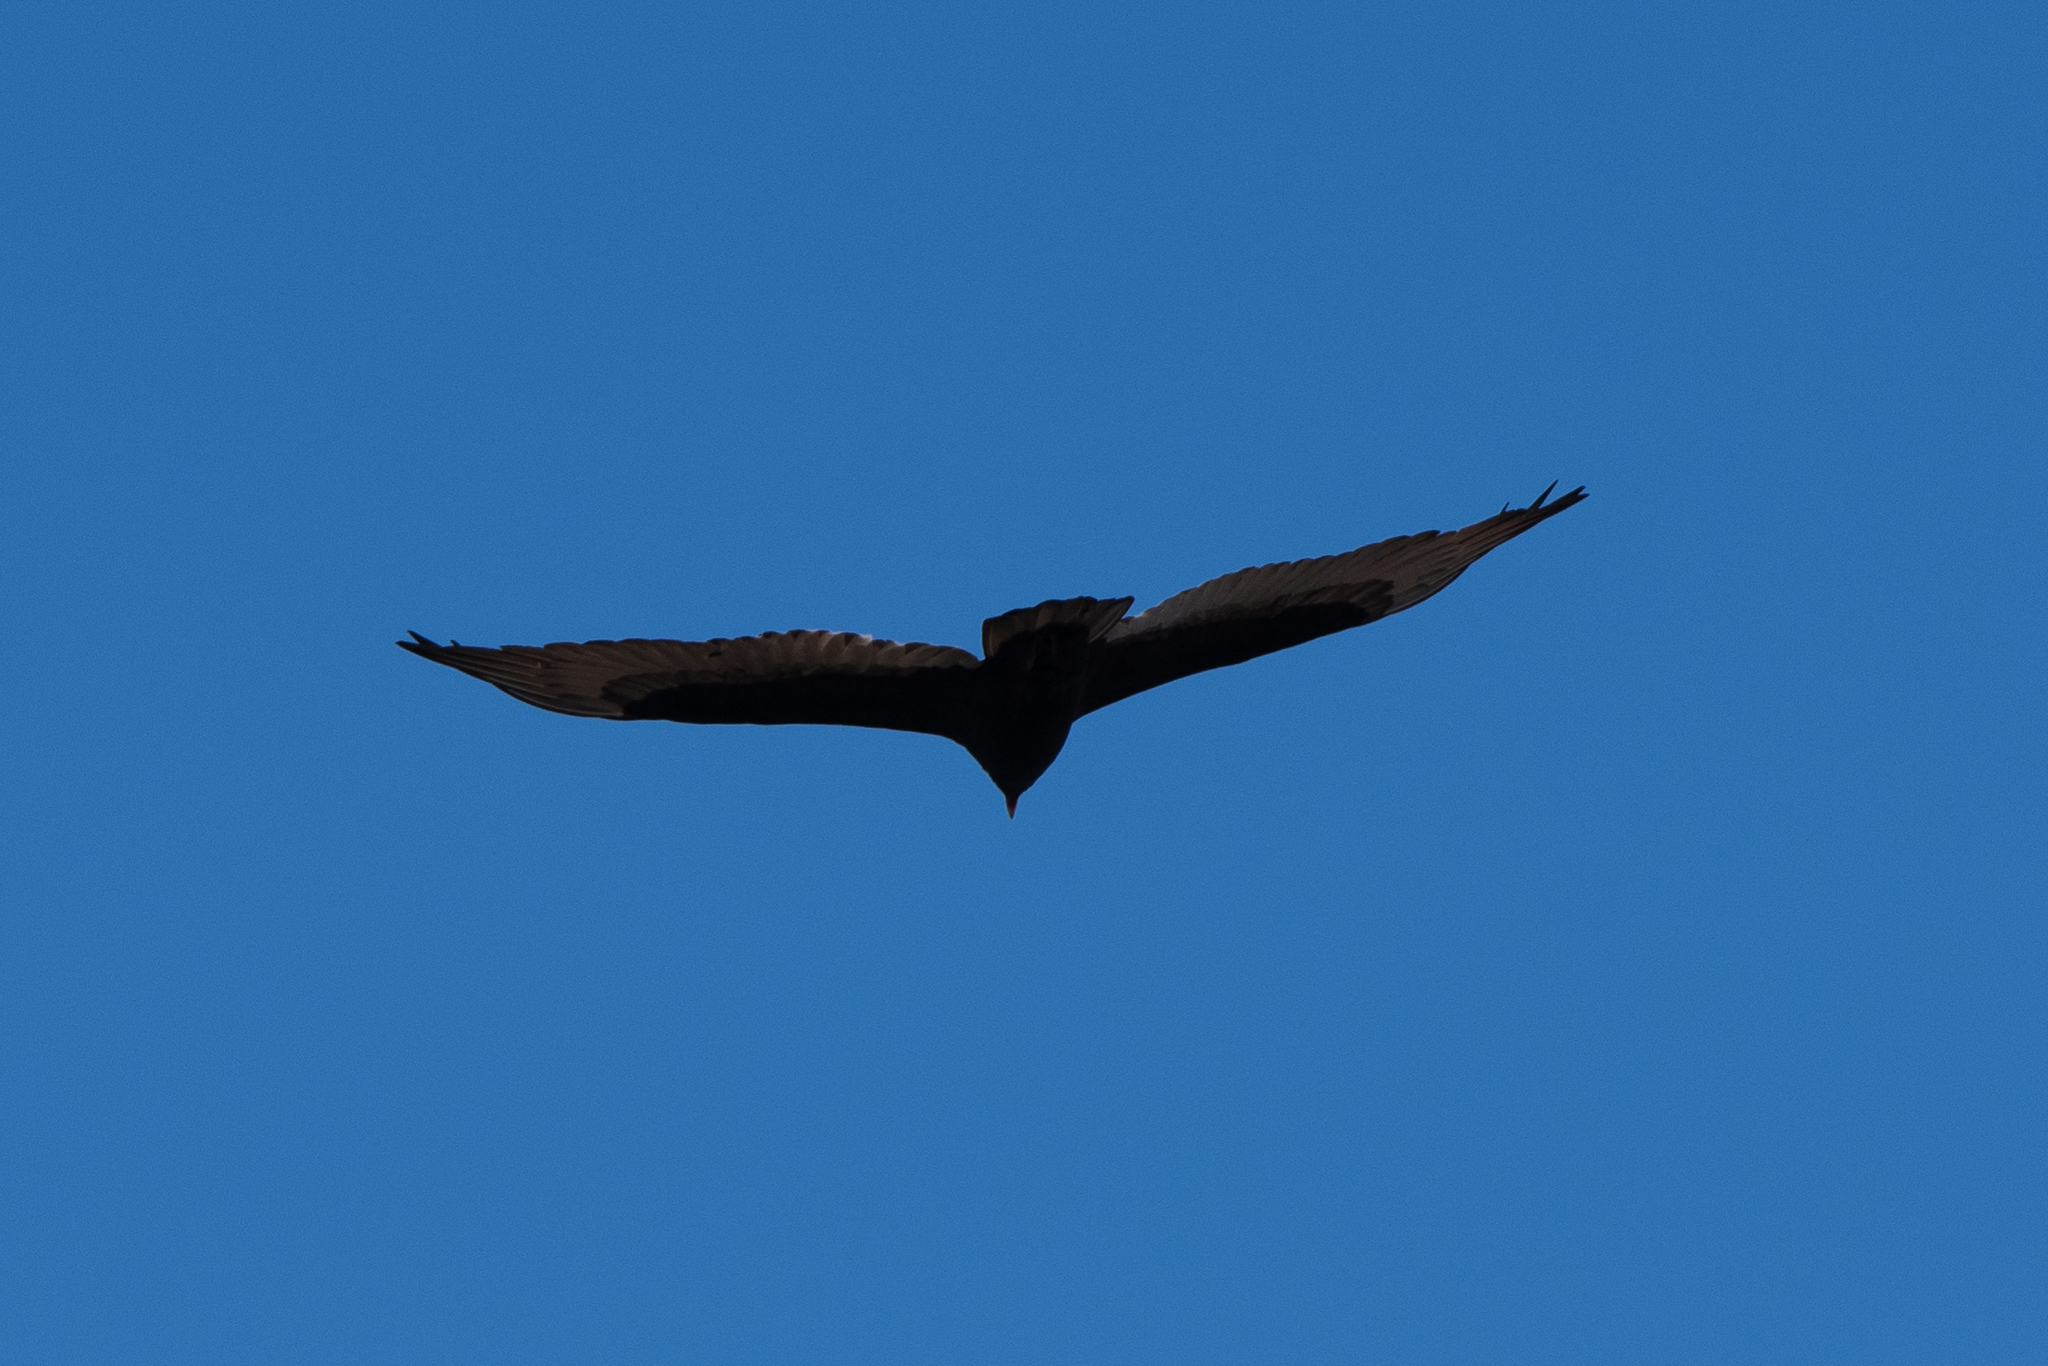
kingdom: Animalia
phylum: Chordata
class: Aves
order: Accipitriformes
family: Cathartidae
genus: Cathartes
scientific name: Cathartes aura
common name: Turkey vulture
